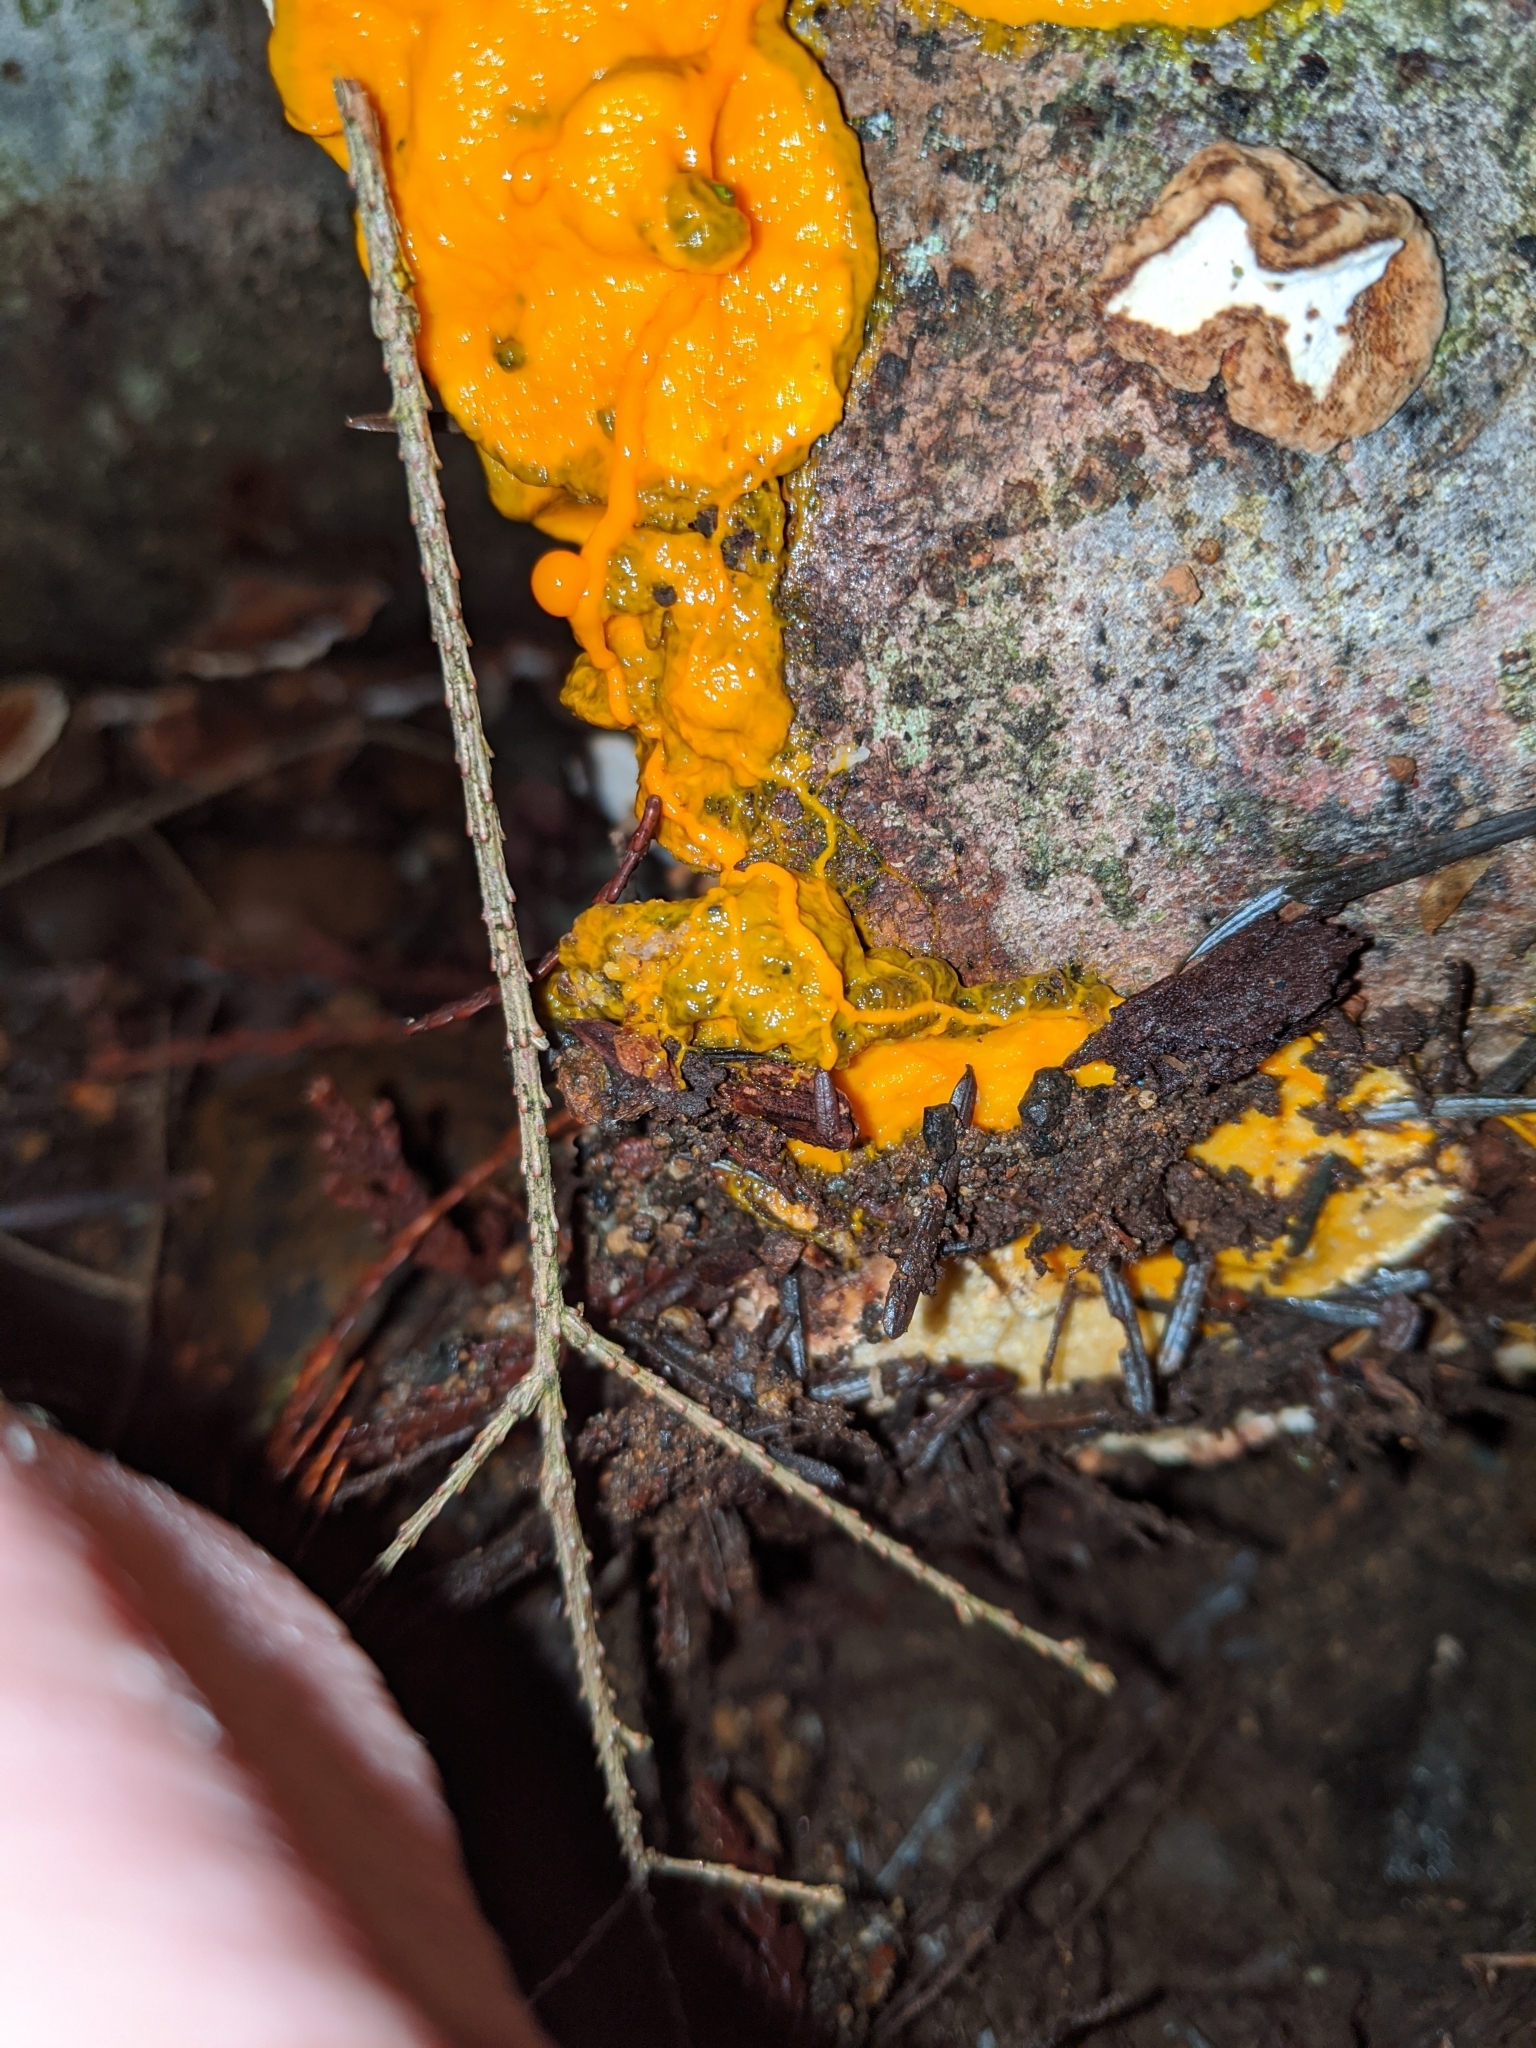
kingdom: Protozoa
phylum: Mycetozoa
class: Myxomycetes
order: Physarales
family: Physaraceae
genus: Badhamia
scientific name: Badhamia utricularis
